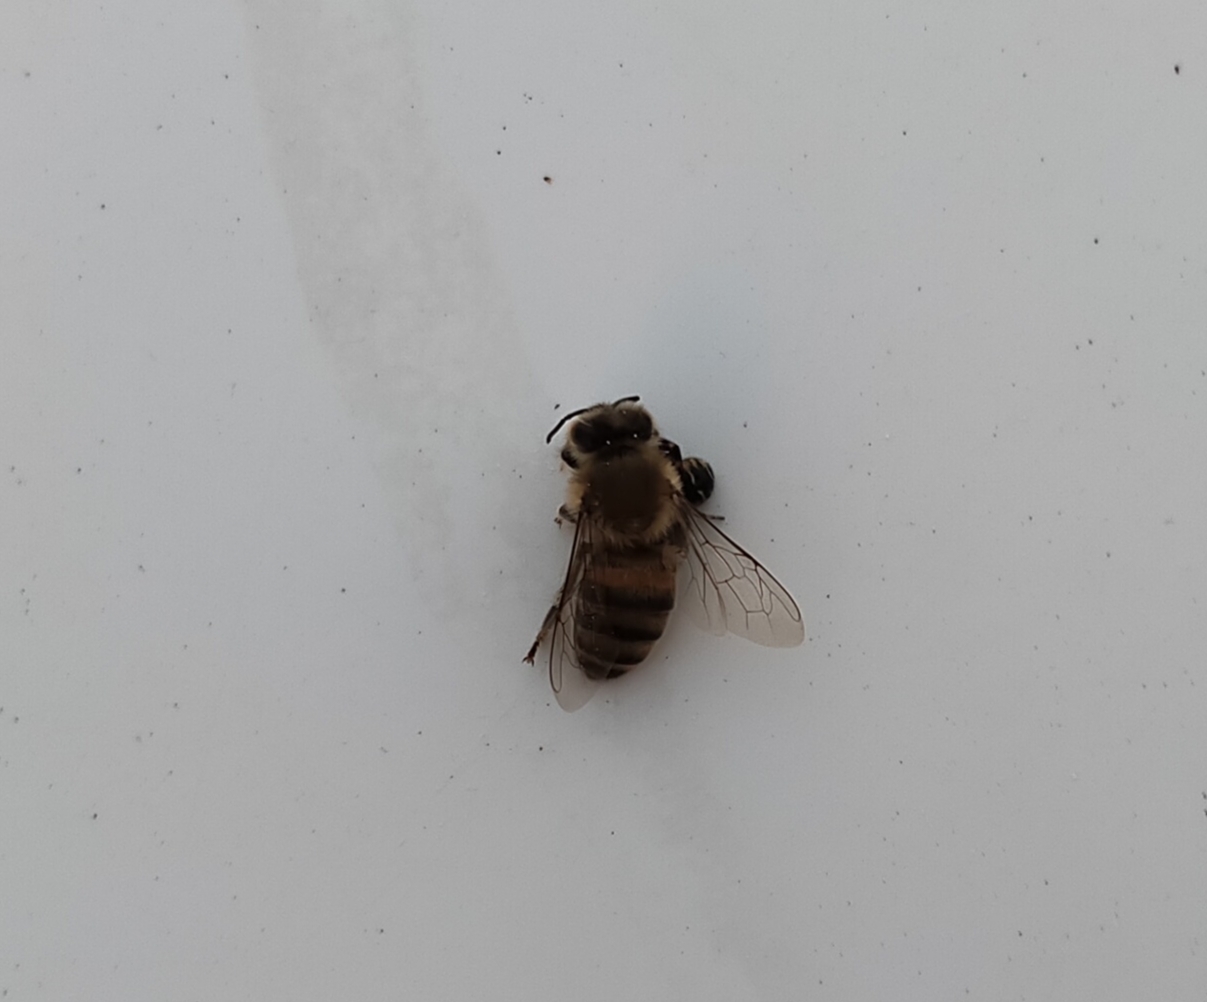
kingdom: Animalia
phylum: Arthropoda
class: Insecta
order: Hymenoptera
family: Apidae
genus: Apis
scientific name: Apis mellifera
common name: Honey bee
